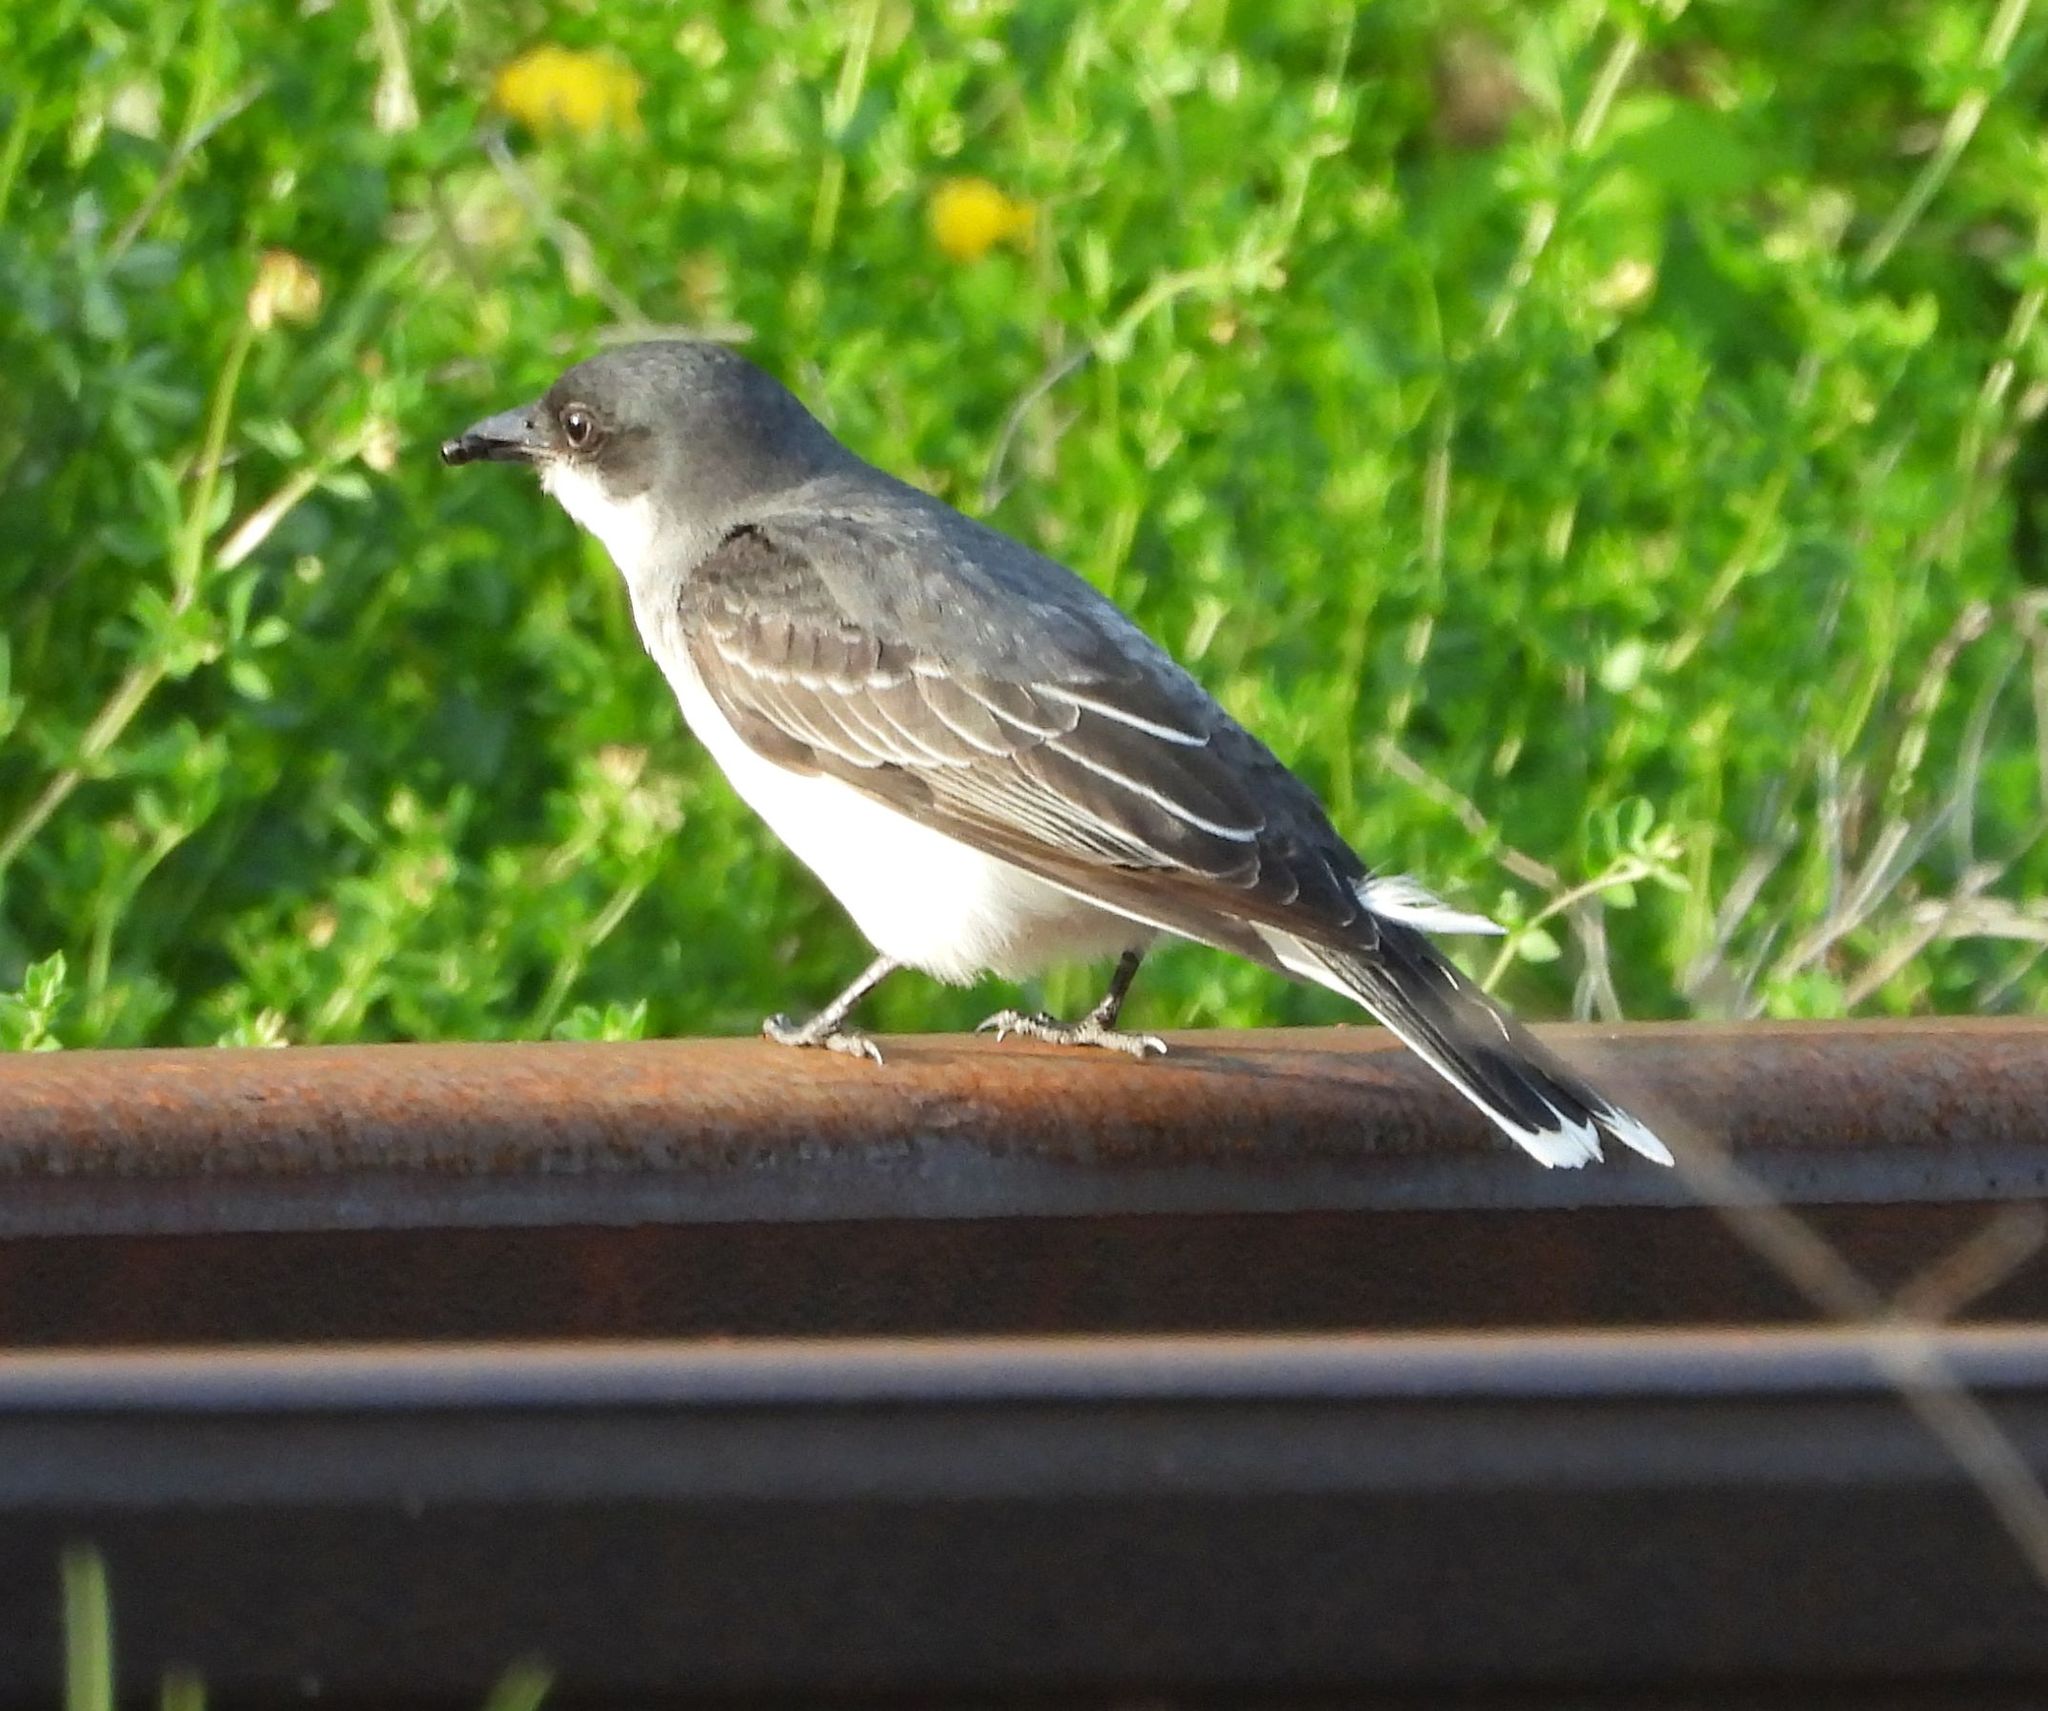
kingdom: Animalia
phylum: Chordata
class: Aves
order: Passeriformes
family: Tyrannidae
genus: Tyrannus
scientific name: Tyrannus tyrannus
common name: Eastern kingbird
